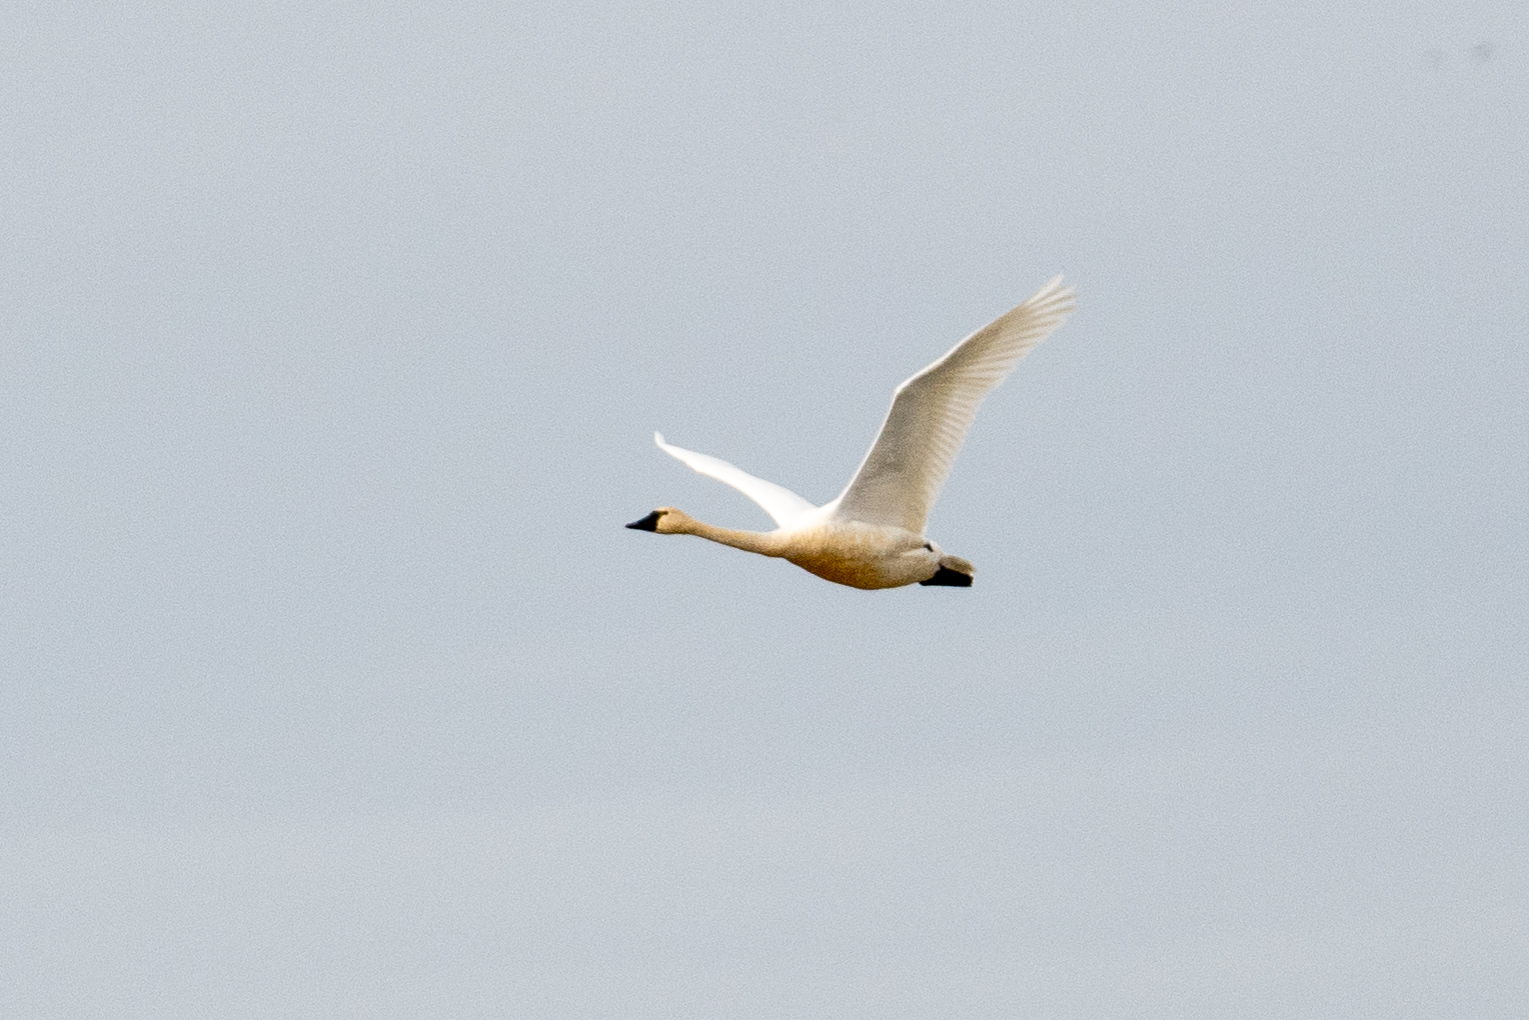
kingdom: Animalia
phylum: Chordata
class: Aves
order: Anseriformes
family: Anatidae
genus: Cygnus
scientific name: Cygnus columbianus
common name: Tundra swan
